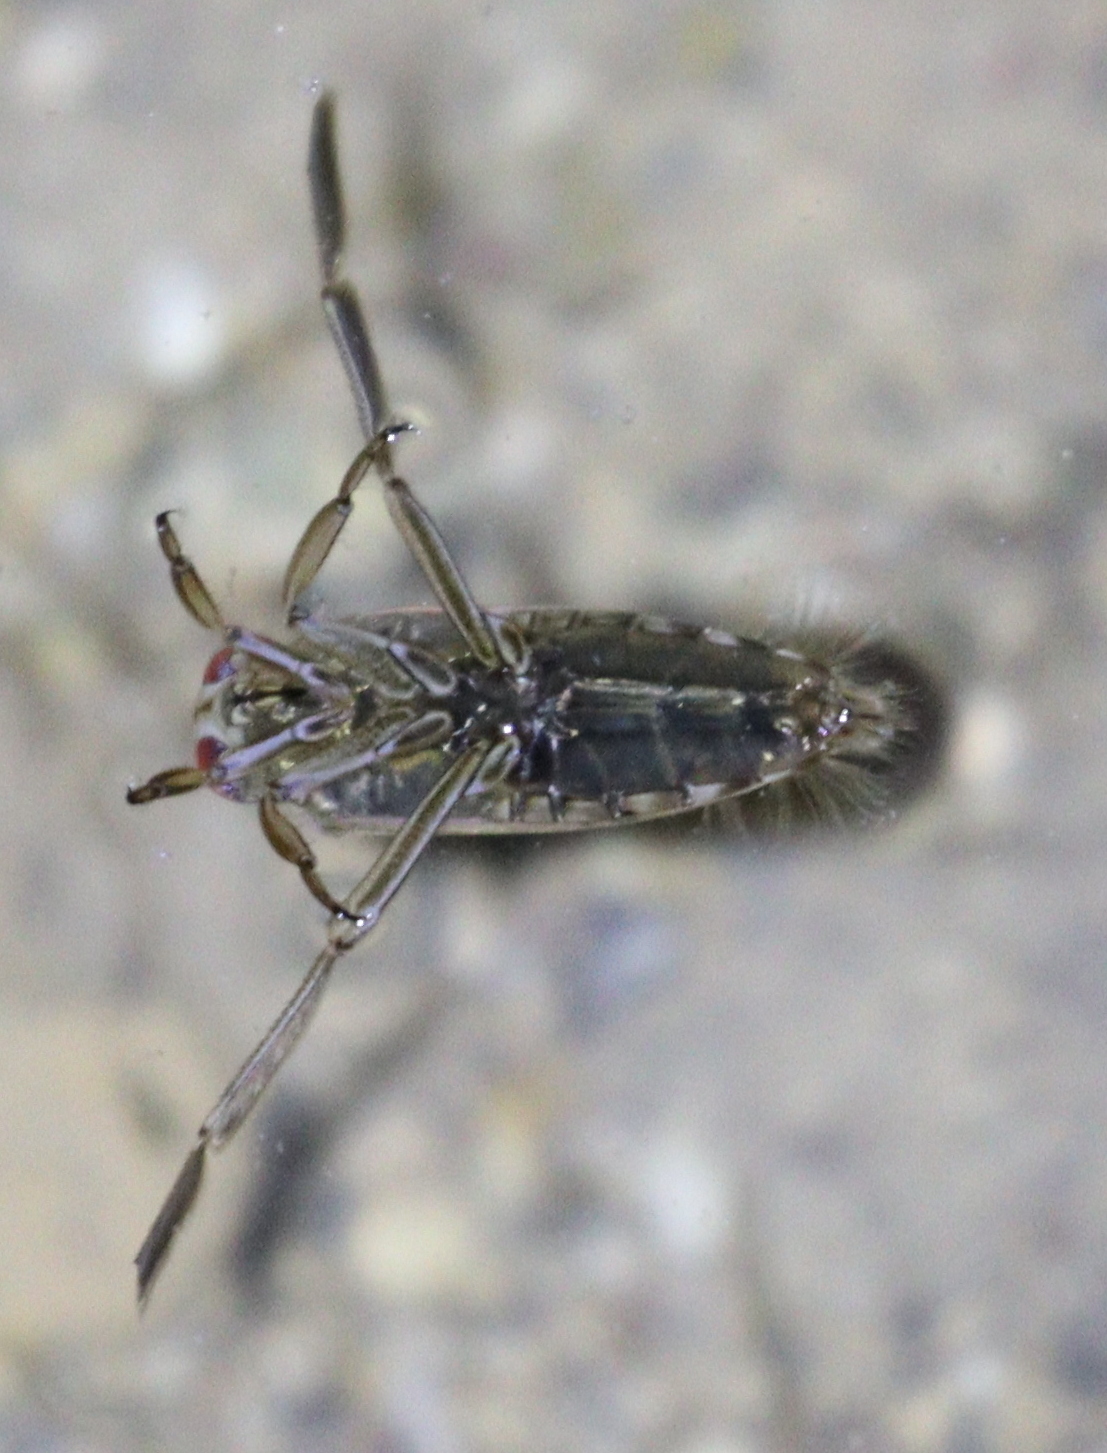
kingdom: Animalia
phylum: Arthropoda
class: Insecta
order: Hemiptera
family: Notonectidae
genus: Notonecta
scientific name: Notonecta
